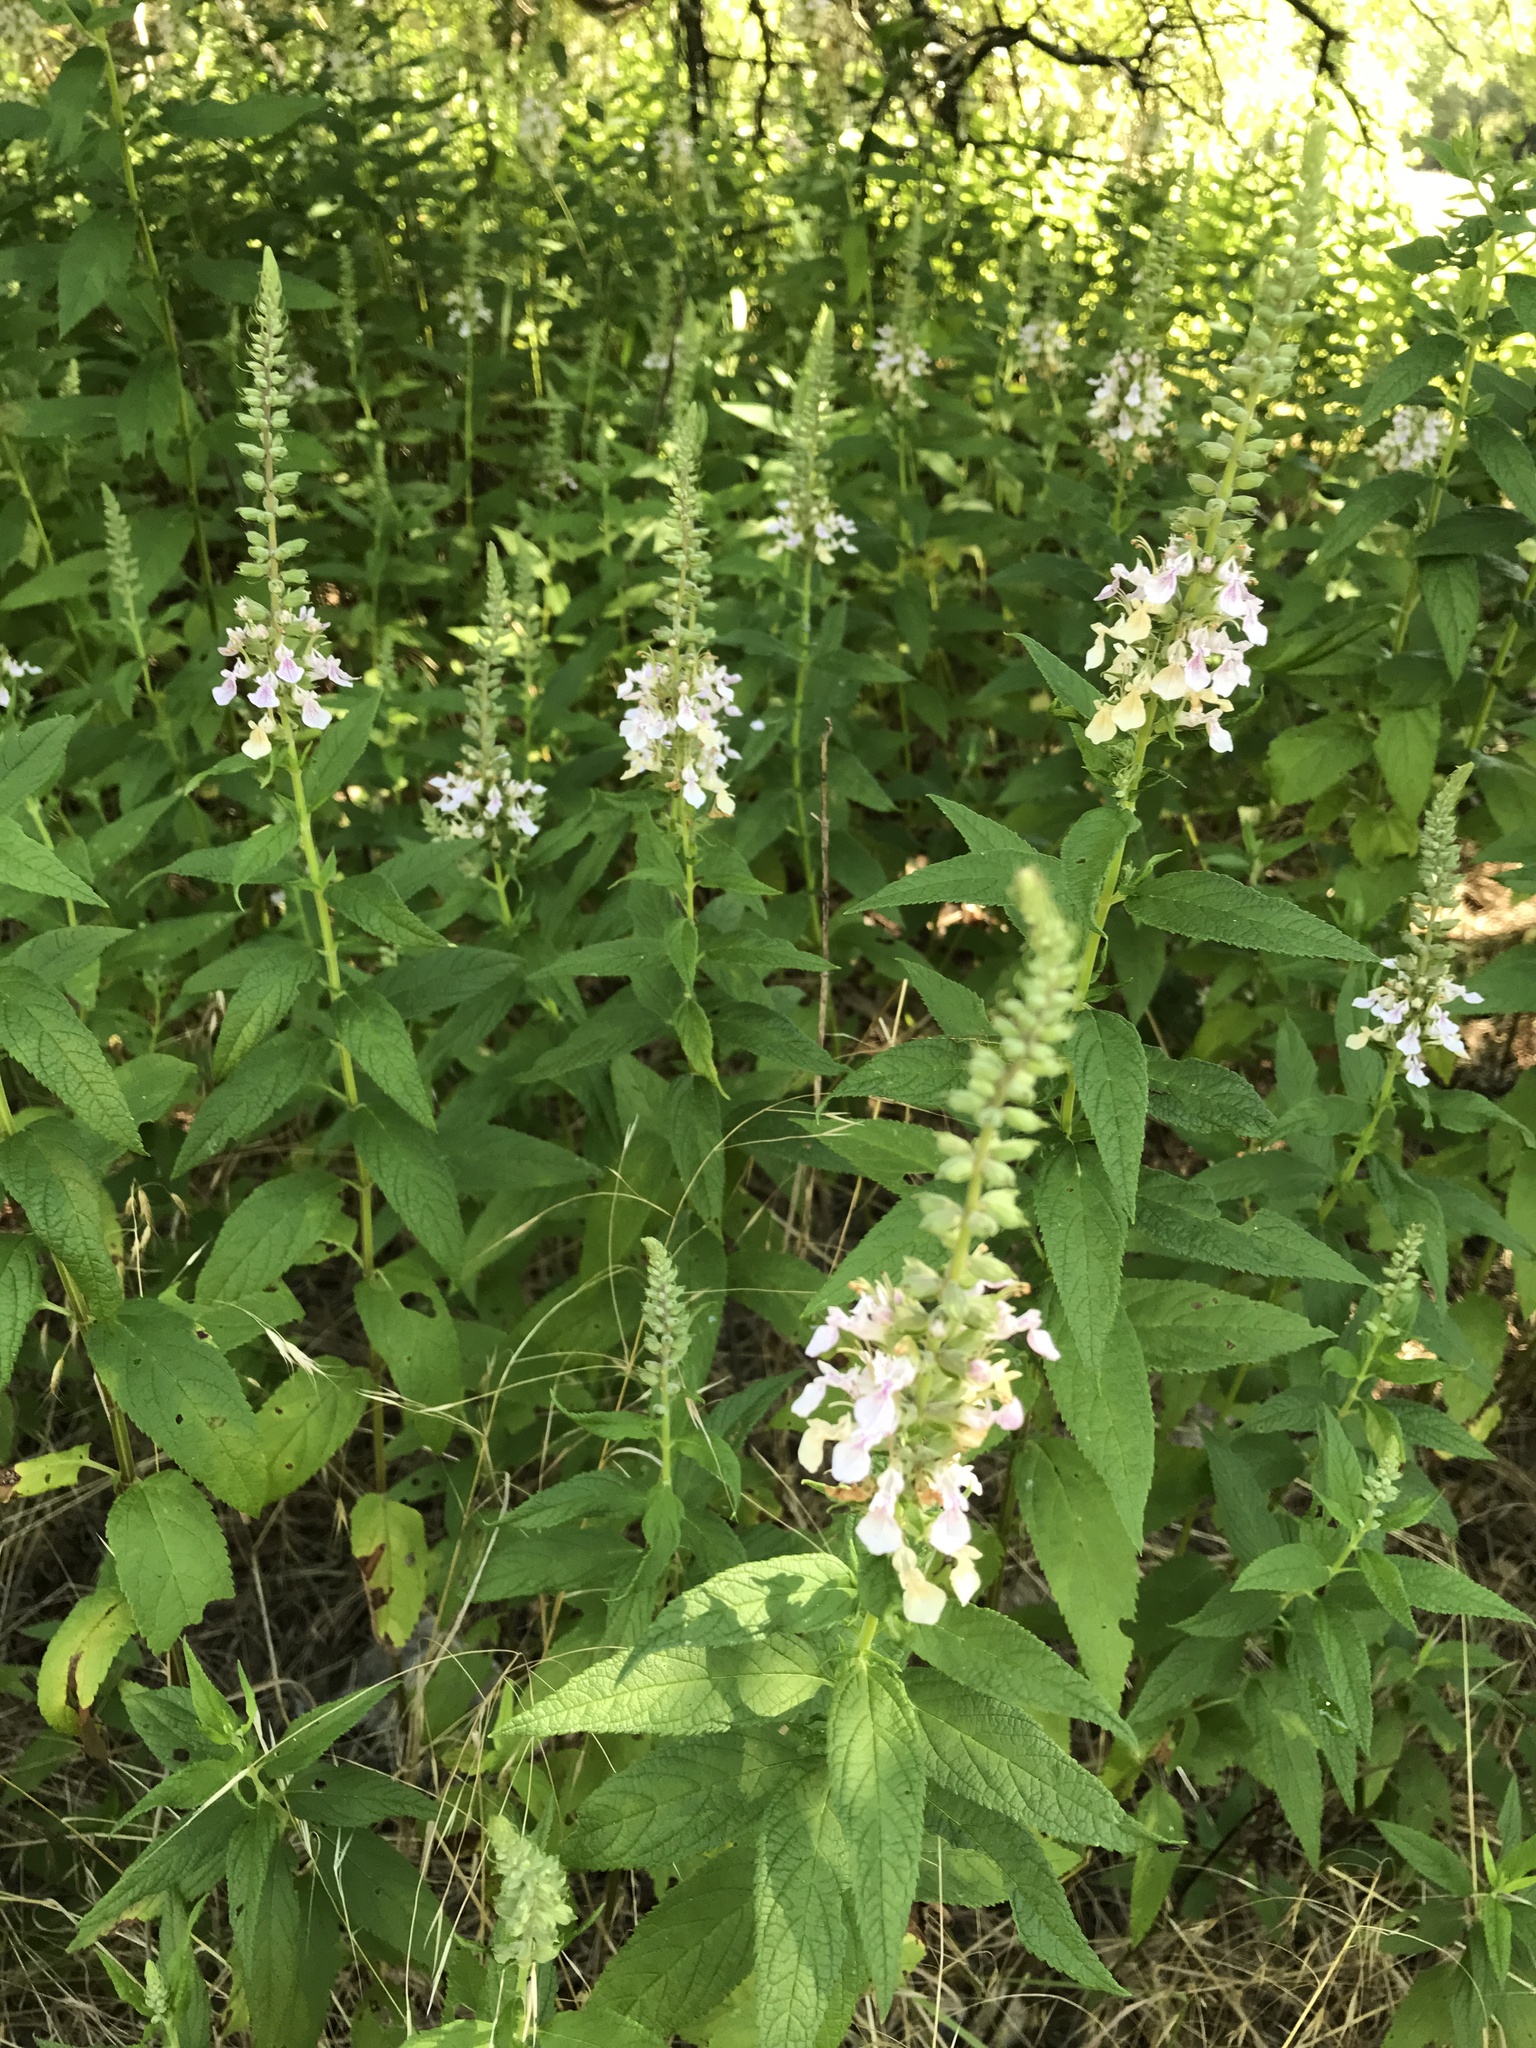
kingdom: Plantae
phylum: Tracheophyta
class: Magnoliopsida
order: Lamiales
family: Lamiaceae
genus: Teucrium
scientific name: Teucrium canadense
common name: American germander
